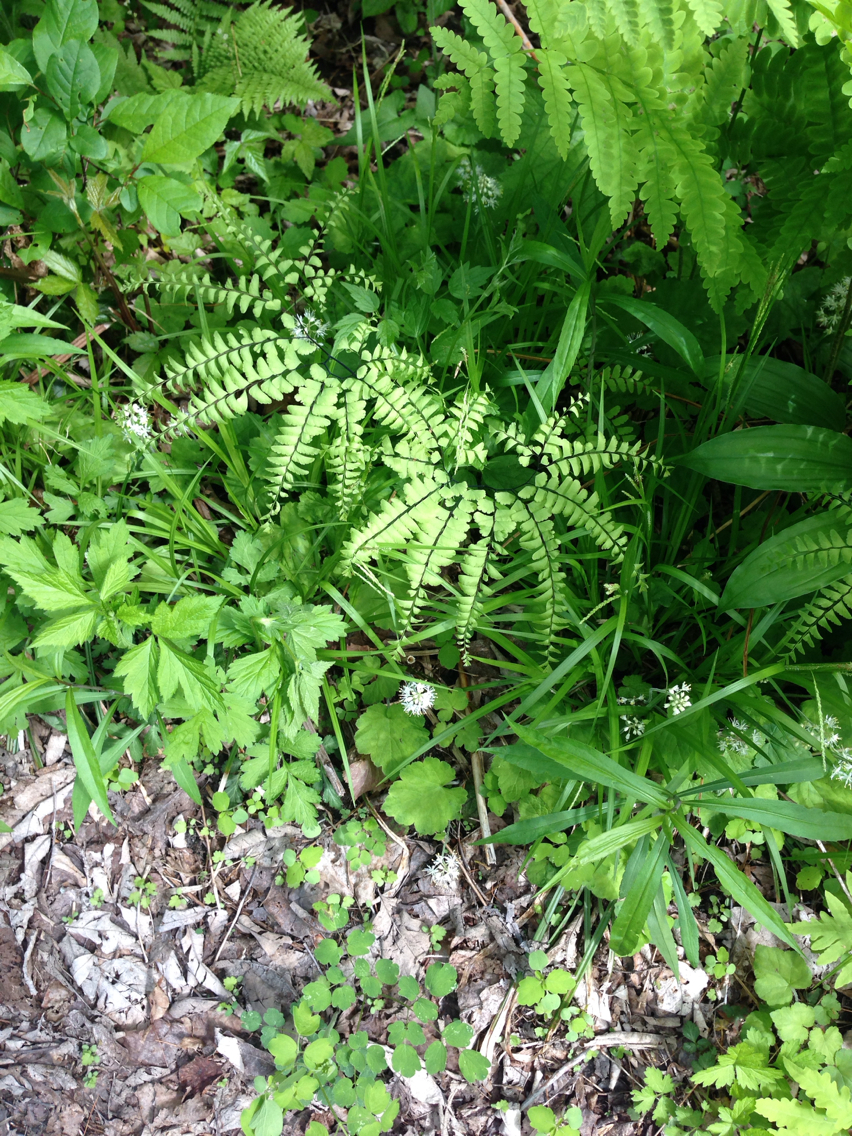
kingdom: Plantae
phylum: Tracheophyta
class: Polypodiopsida
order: Polypodiales
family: Pteridaceae
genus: Adiantum
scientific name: Adiantum pedatum
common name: Five-finger fern
